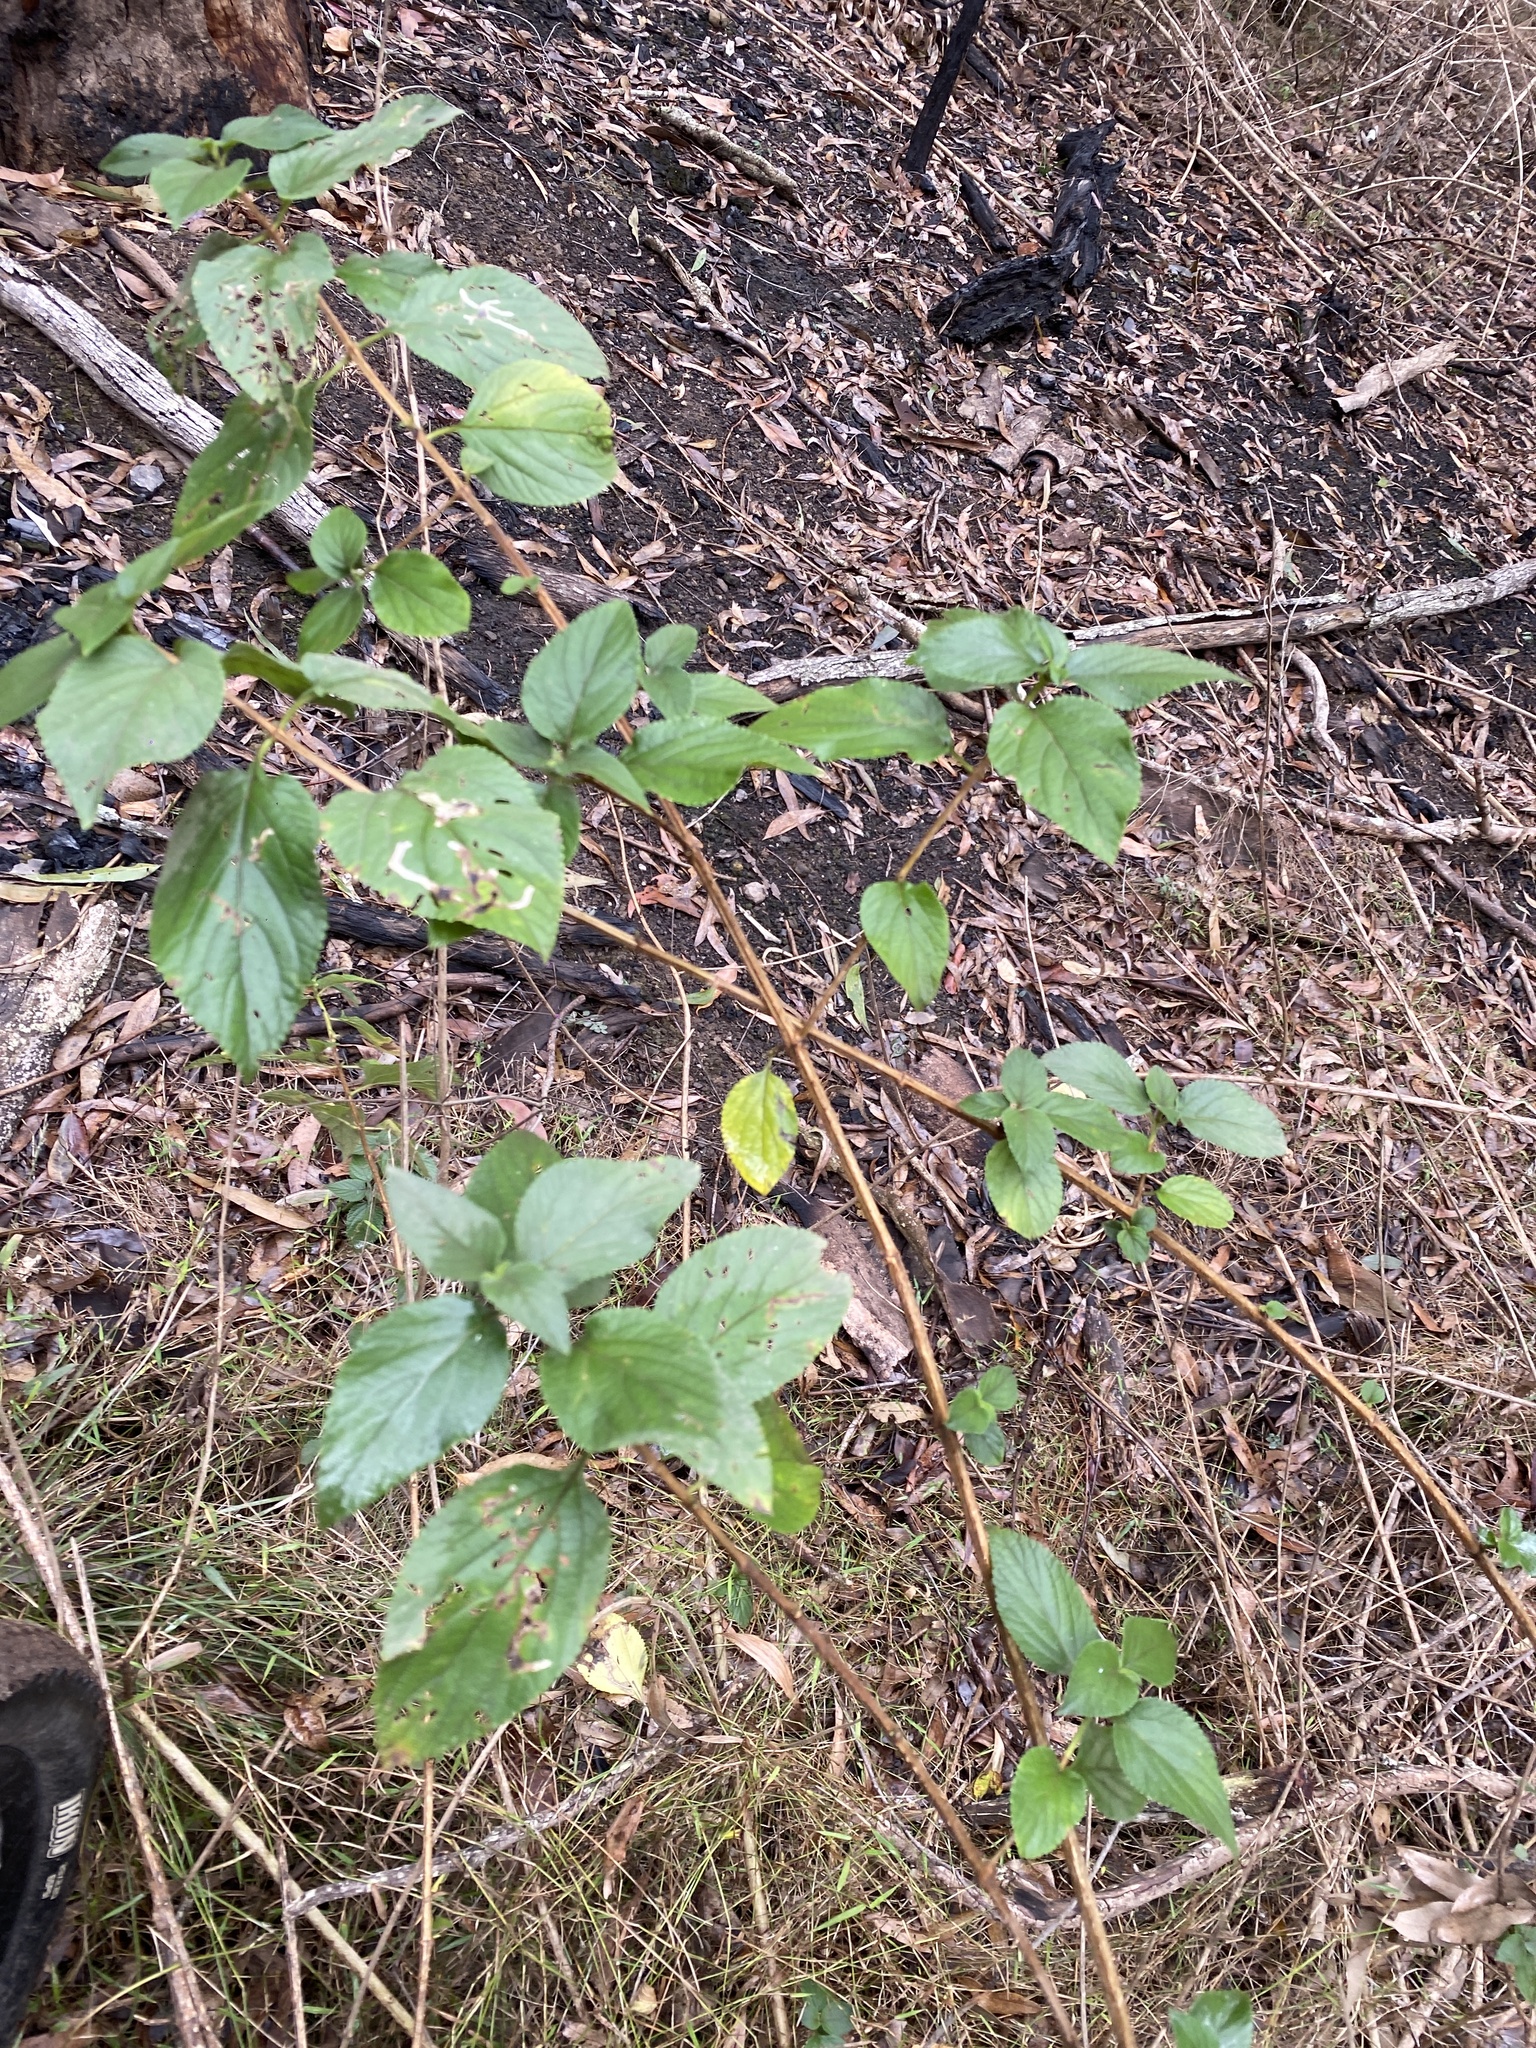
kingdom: Plantae
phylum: Tracheophyta
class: Magnoliopsida
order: Lamiales
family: Verbenaceae
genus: Lantana
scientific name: Lantana camara
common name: Lantana
